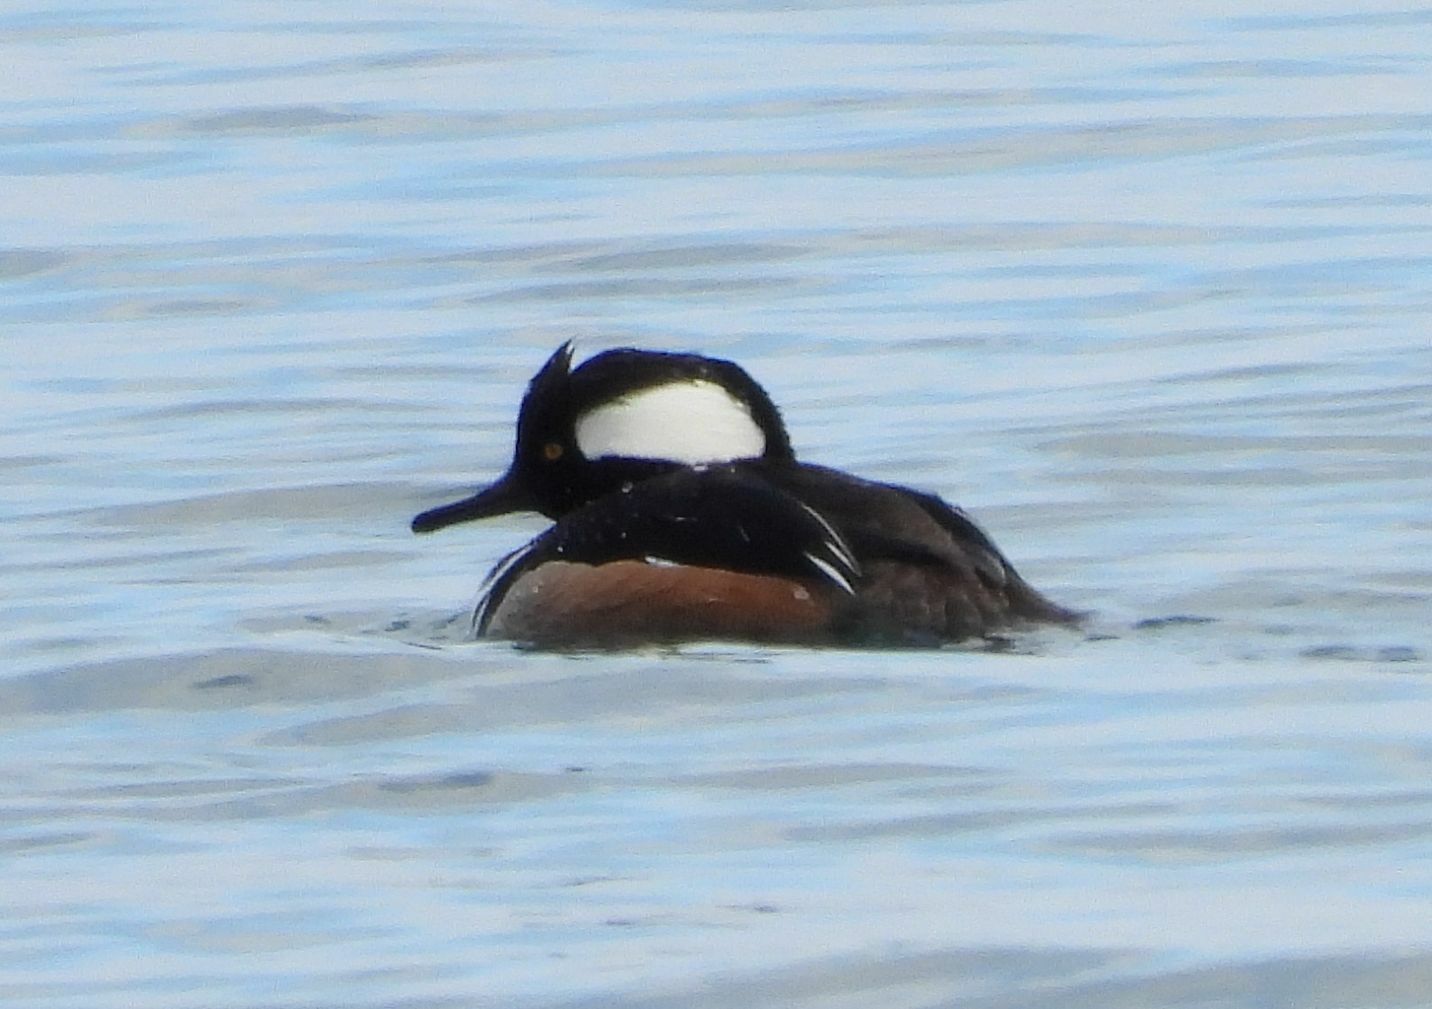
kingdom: Animalia
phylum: Chordata
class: Aves
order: Anseriformes
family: Anatidae
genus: Lophodytes
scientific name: Lophodytes cucullatus
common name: Hooded merganser
